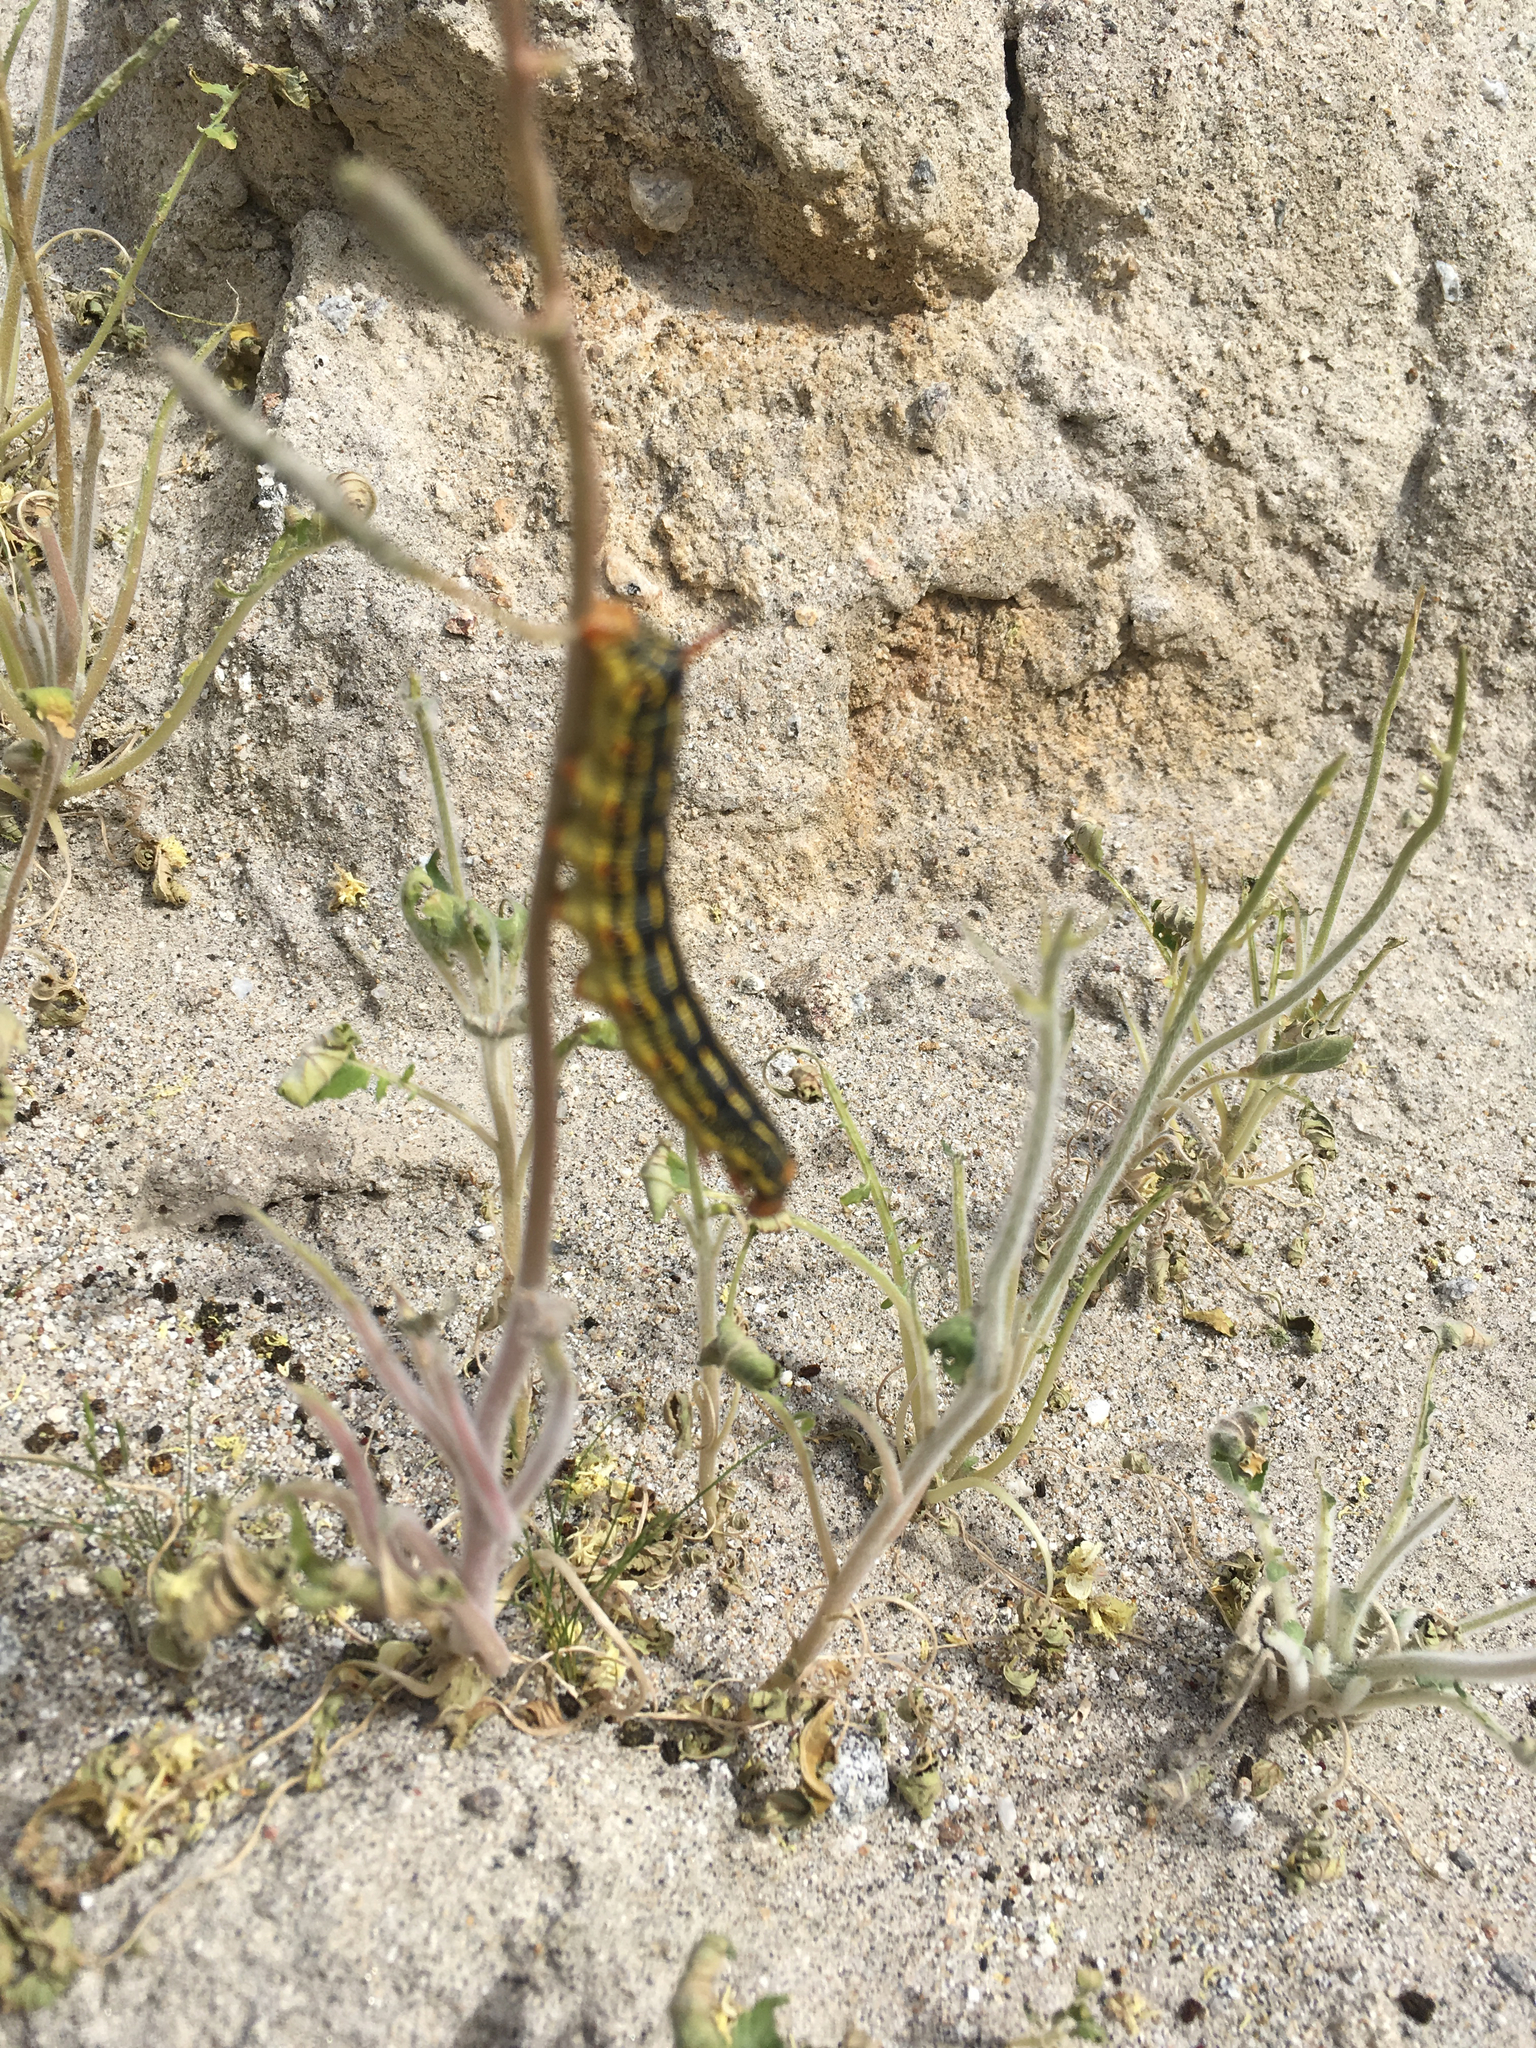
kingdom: Animalia
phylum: Arthropoda
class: Insecta
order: Lepidoptera
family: Sphingidae
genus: Hyles
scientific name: Hyles lineata
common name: White-lined sphinx
